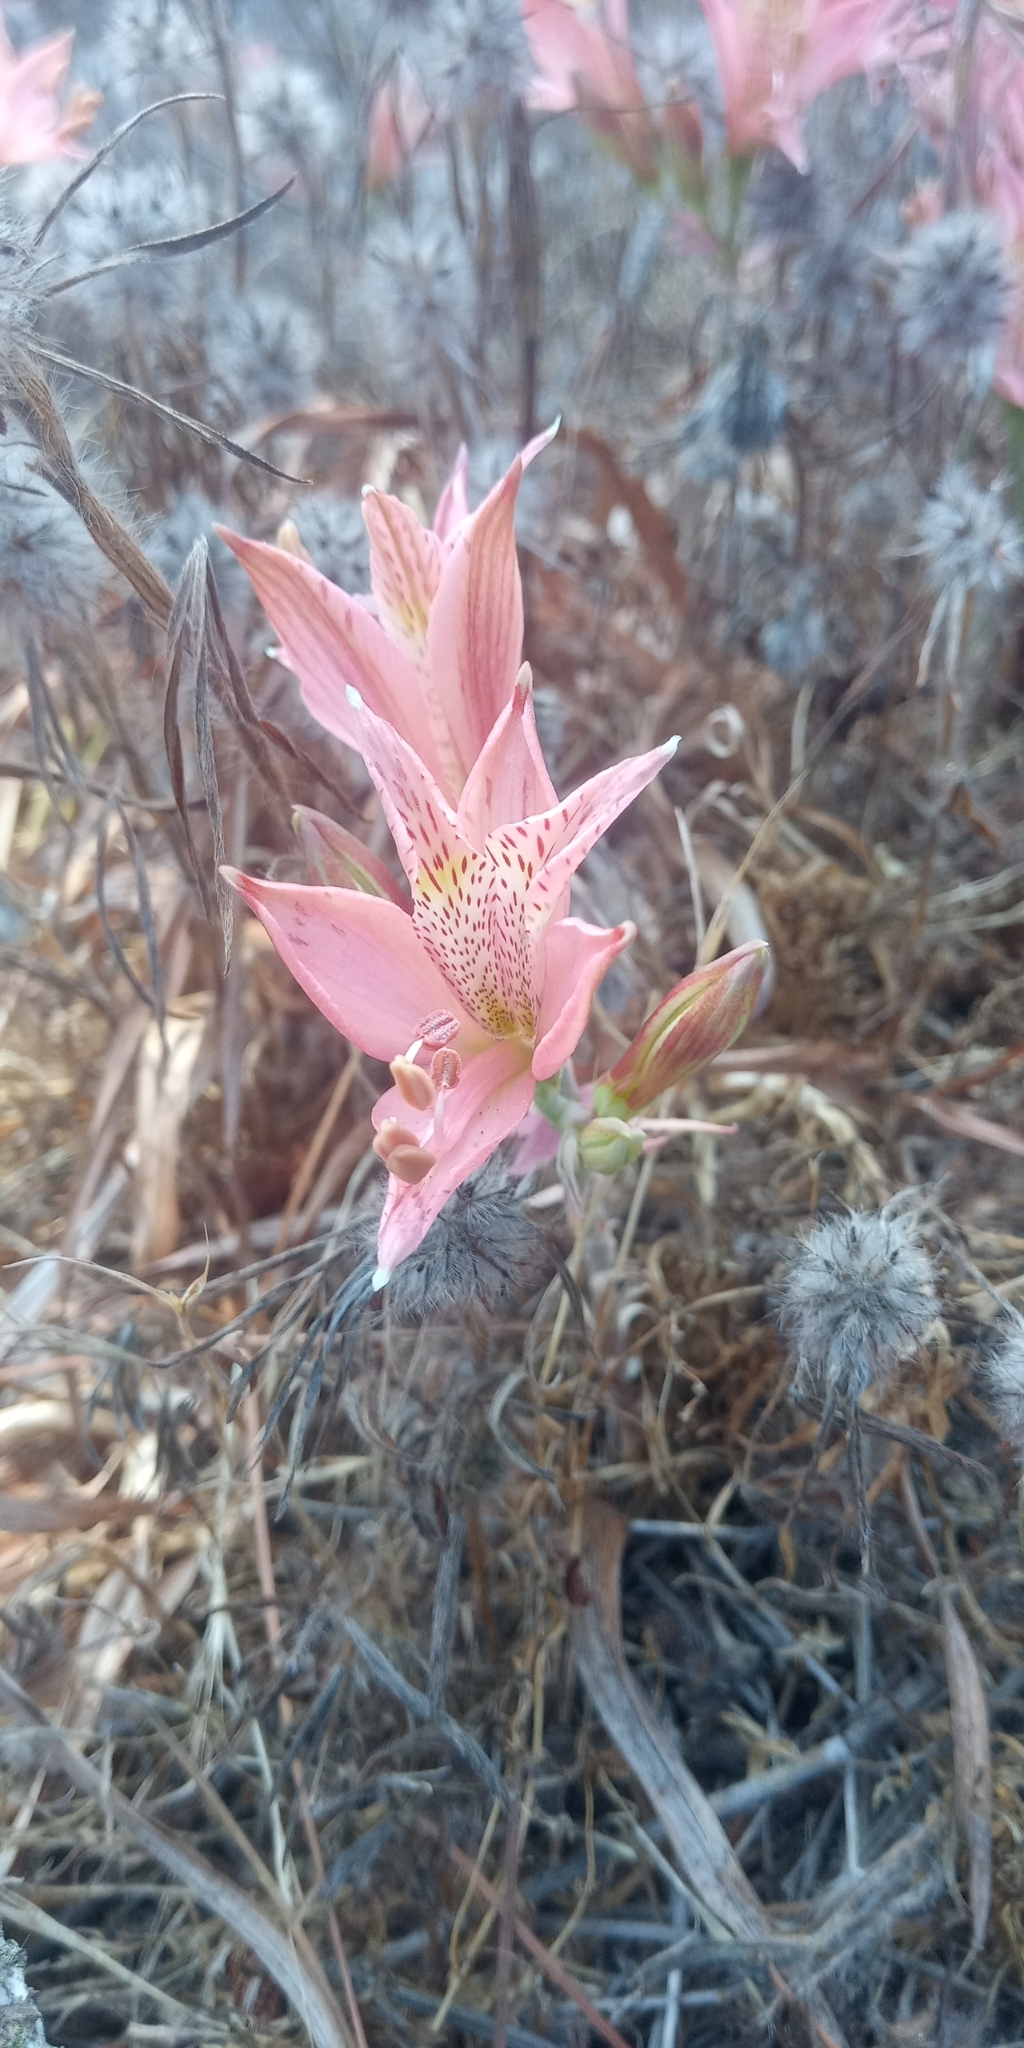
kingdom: Plantae
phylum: Tracheophyta
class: Liliopsida
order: Liliales
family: Alstroemeriaceae
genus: Alstroemeria
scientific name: Alstroemeria marticorenae
